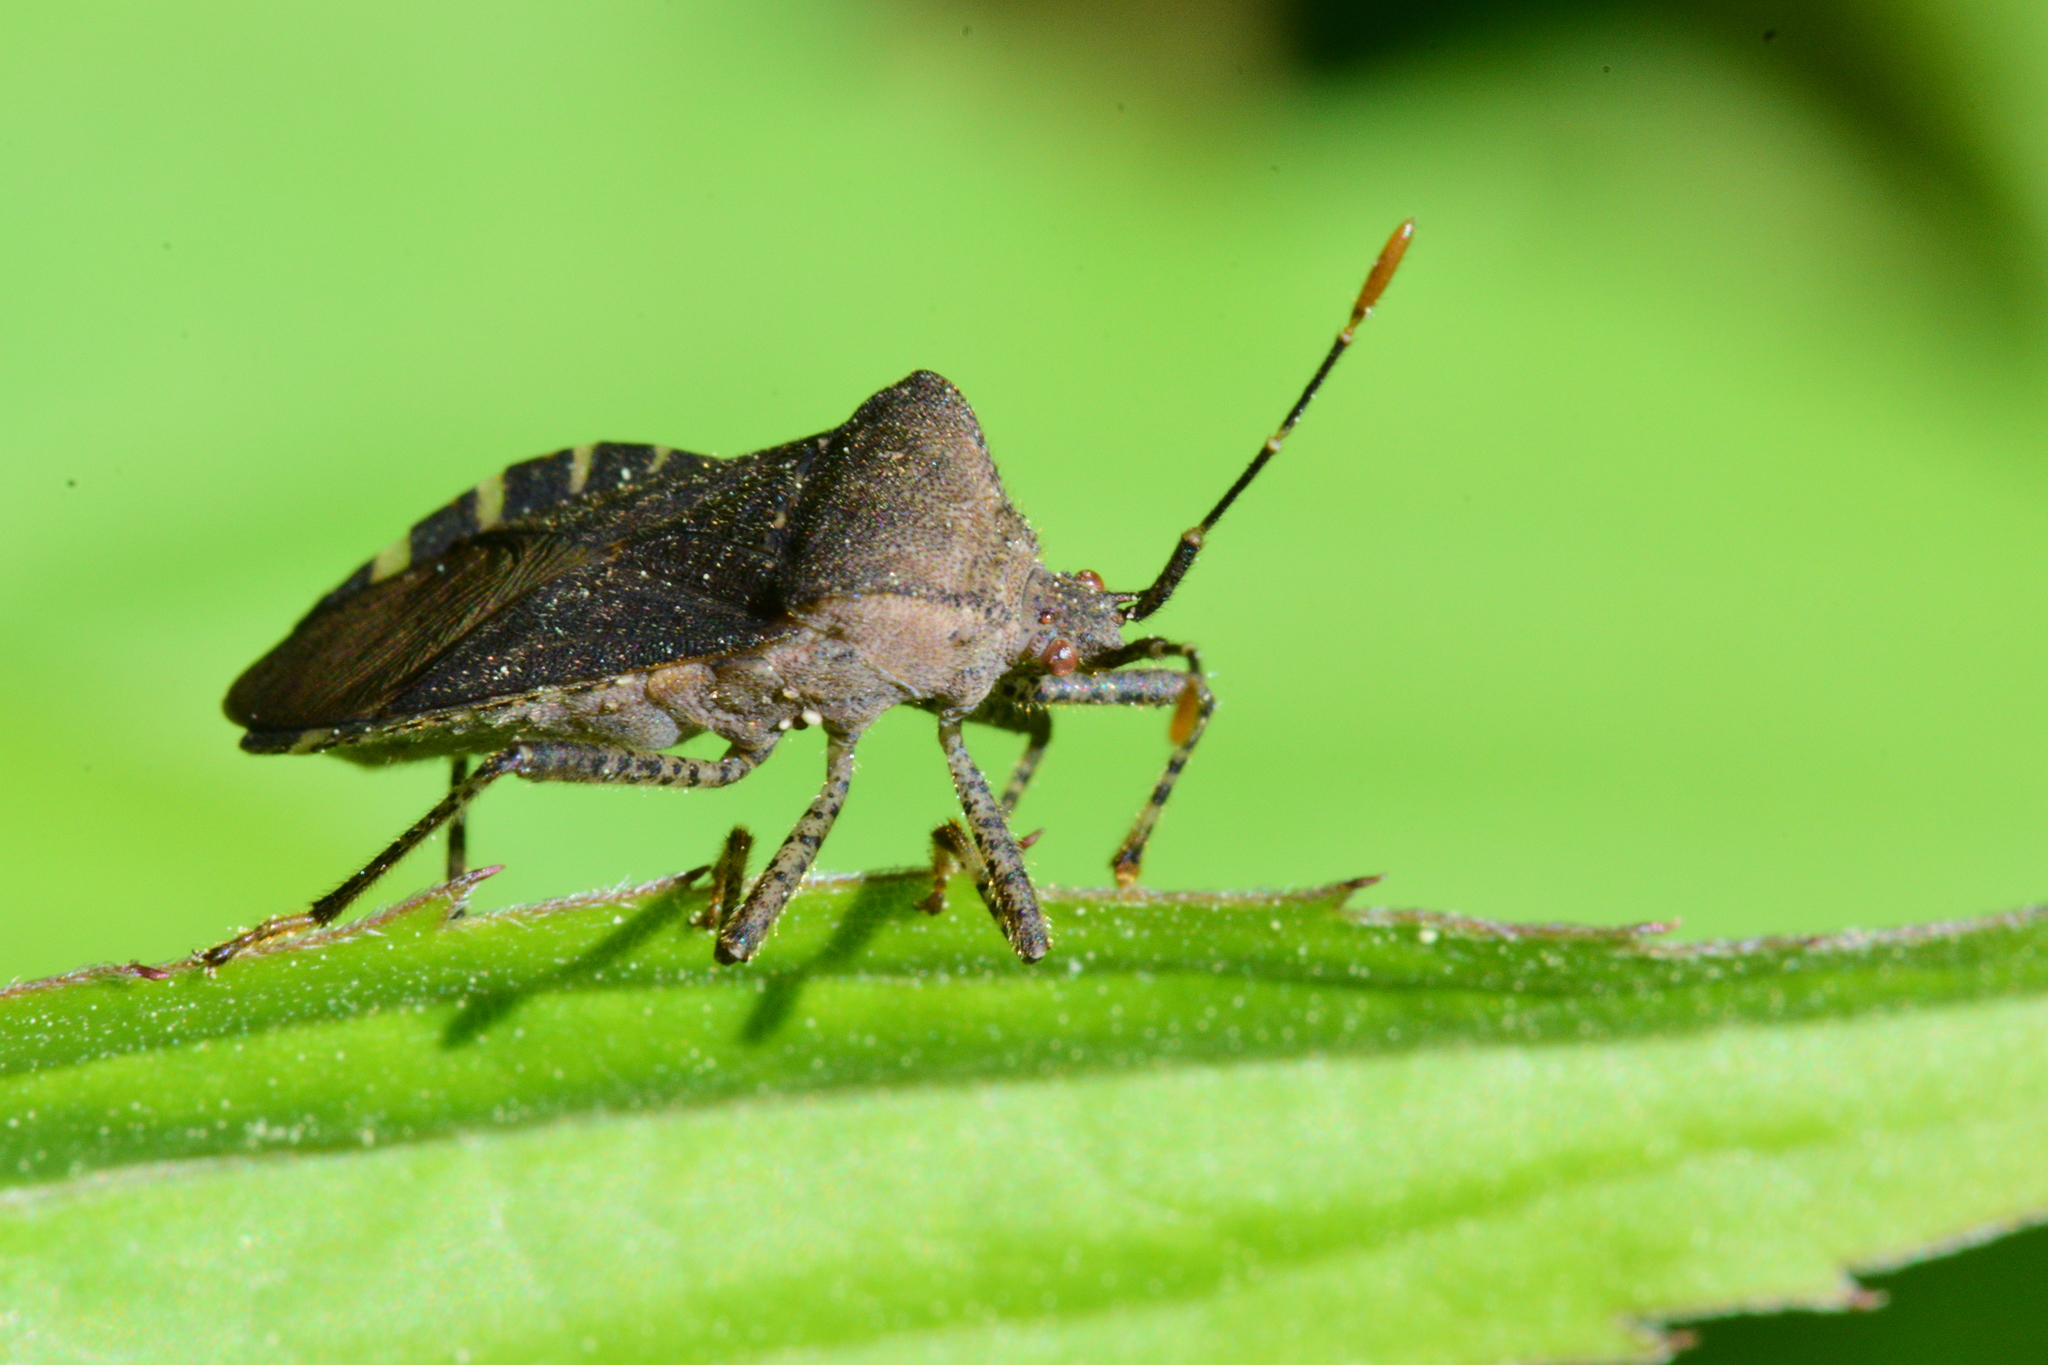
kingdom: Animalia
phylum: Arthropoda
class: Insecta
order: Hemiptera
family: Coreidae
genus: Anasa
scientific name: Anasa armigera
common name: Horned squash bug
